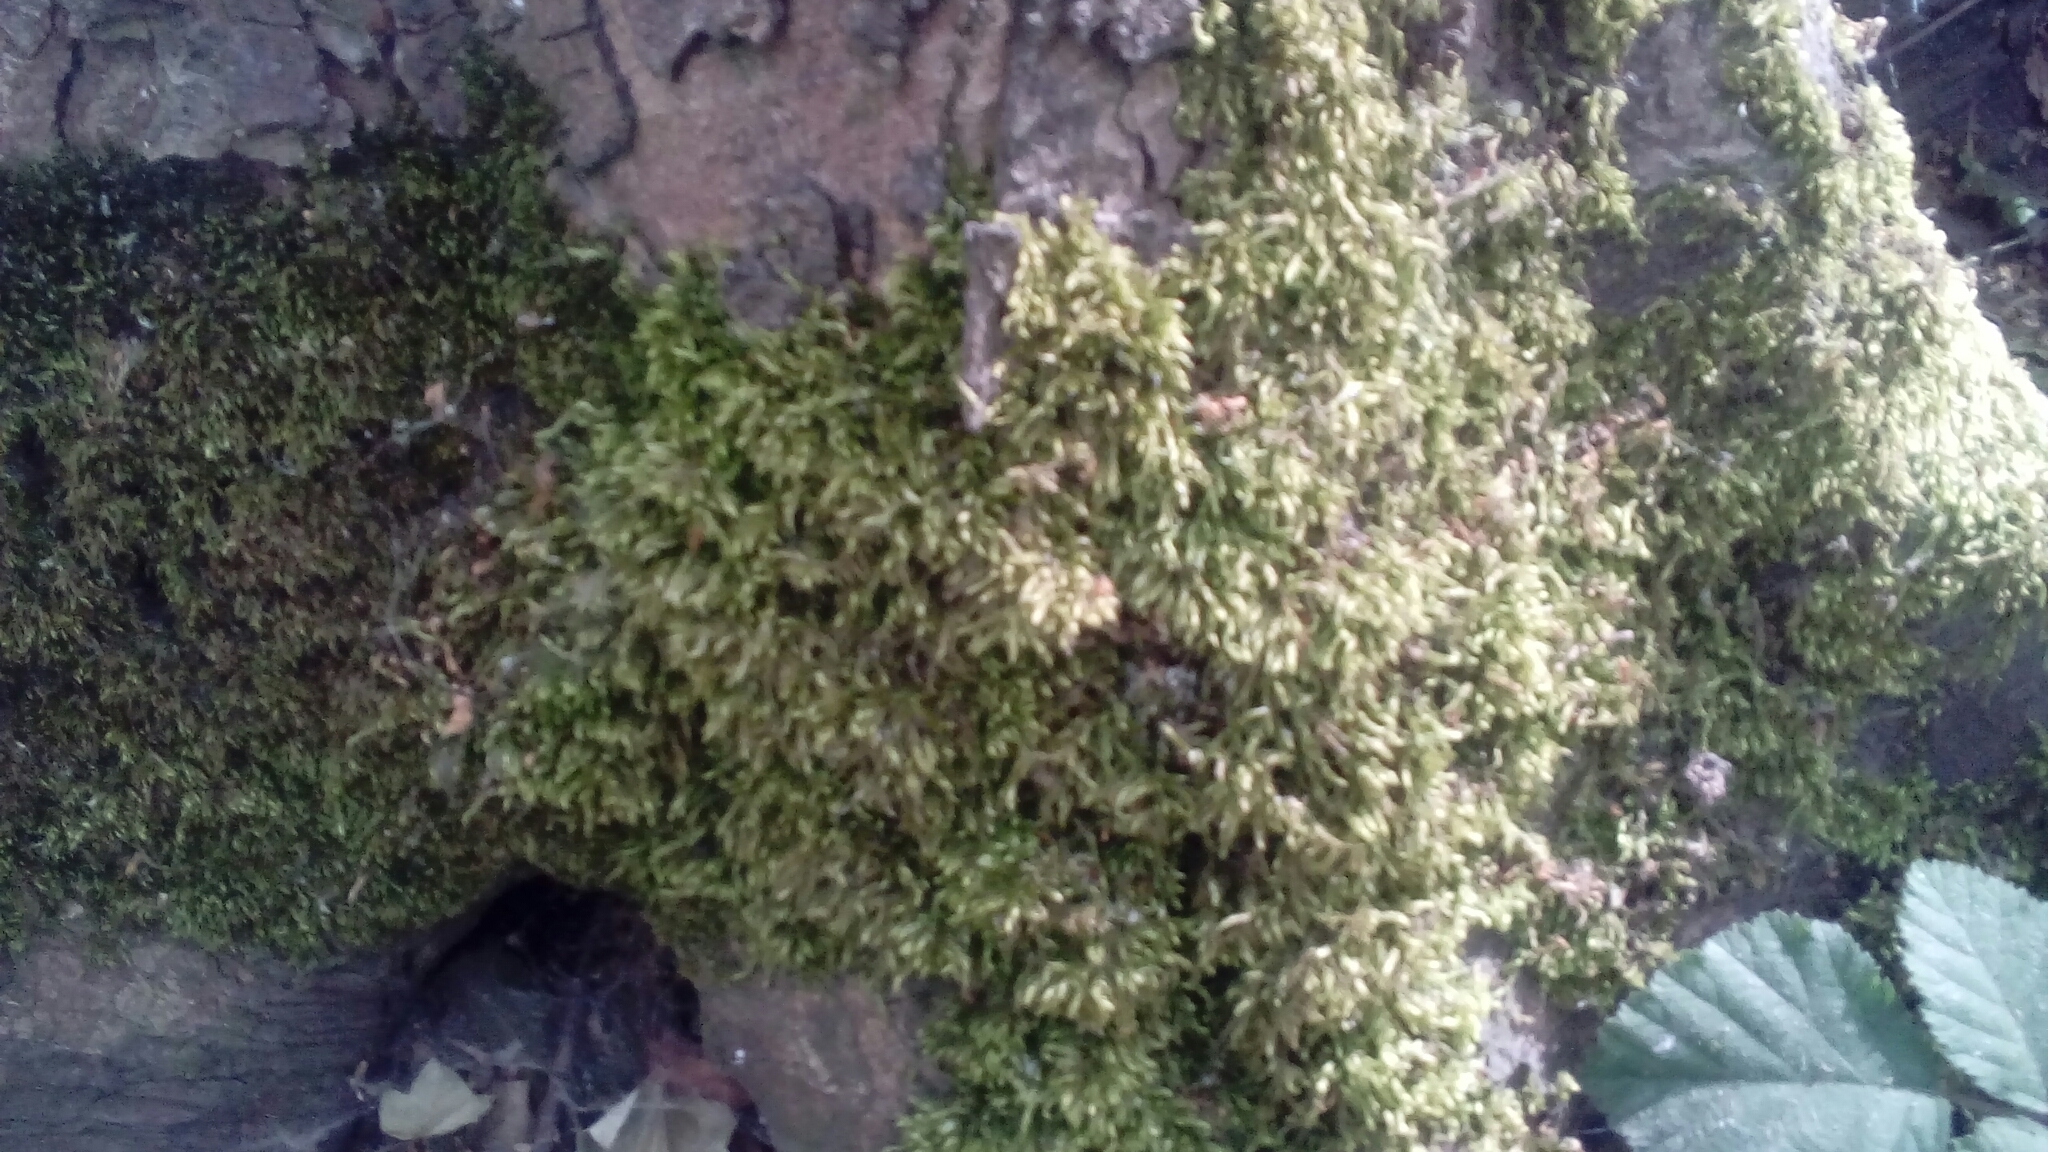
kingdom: Plantae
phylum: Bryophyta
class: Bryopsida
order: Hypnales
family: Hypnaceae
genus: Hypnum
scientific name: Hypnum cupressiforme
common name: Cypress-leaved plait-moss
